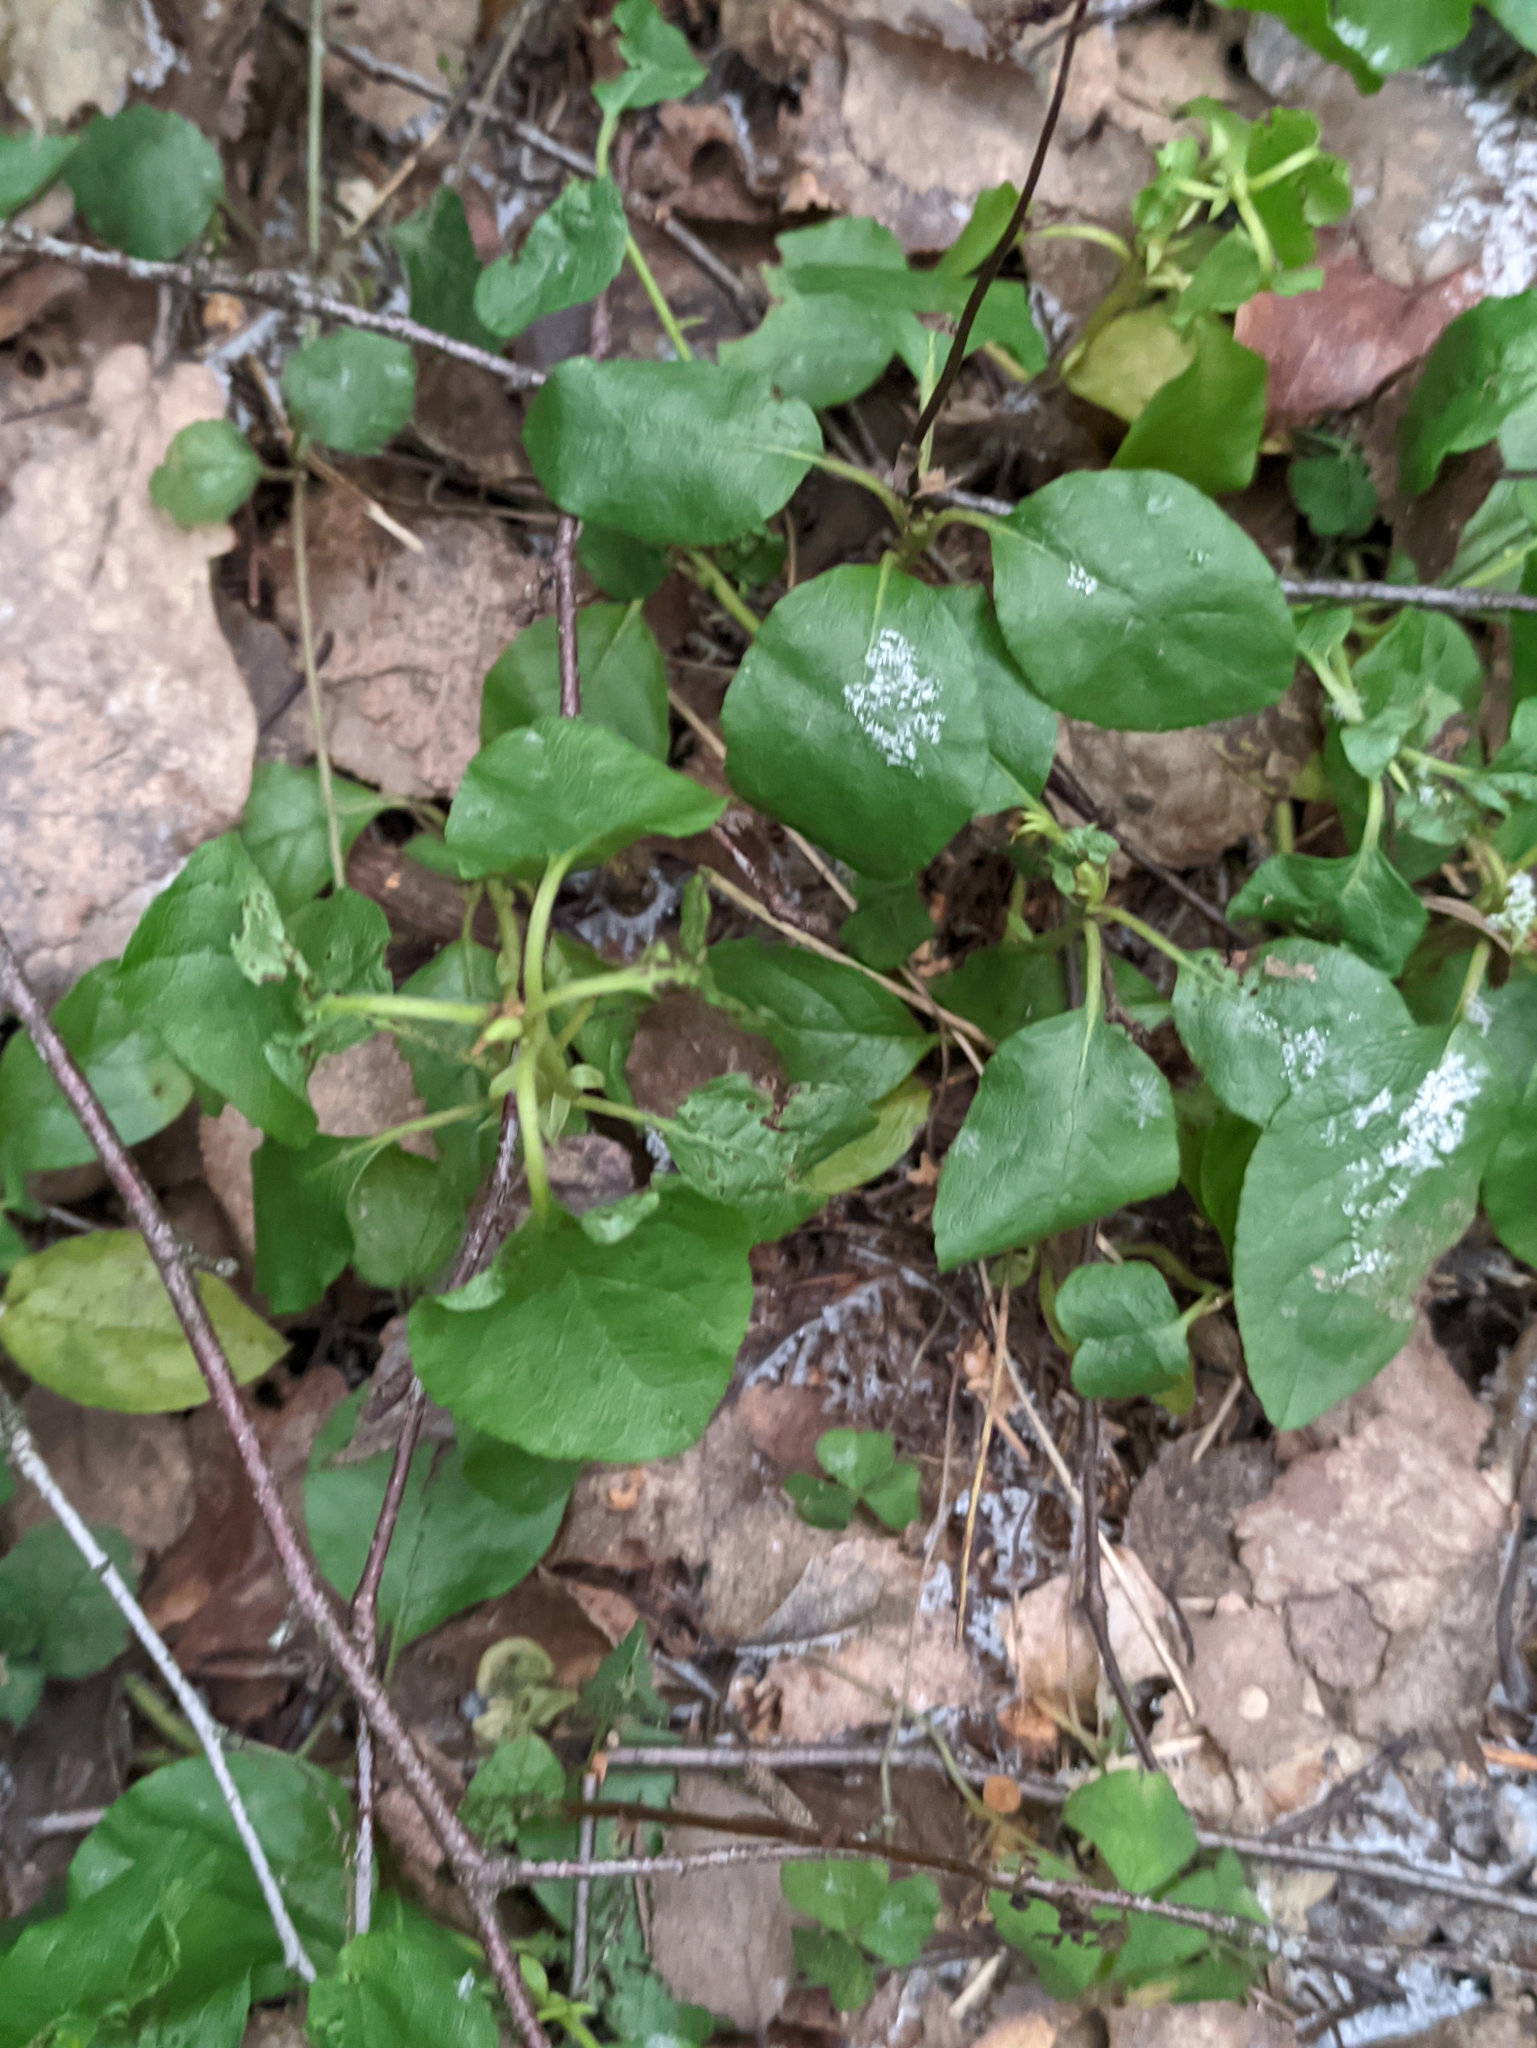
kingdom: Plantae
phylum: Tracheophyta
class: Magnoliopsida
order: Ericales
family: Ericaceae
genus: Orthilia
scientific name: Orthilia secunda
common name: One-sided orthilia
